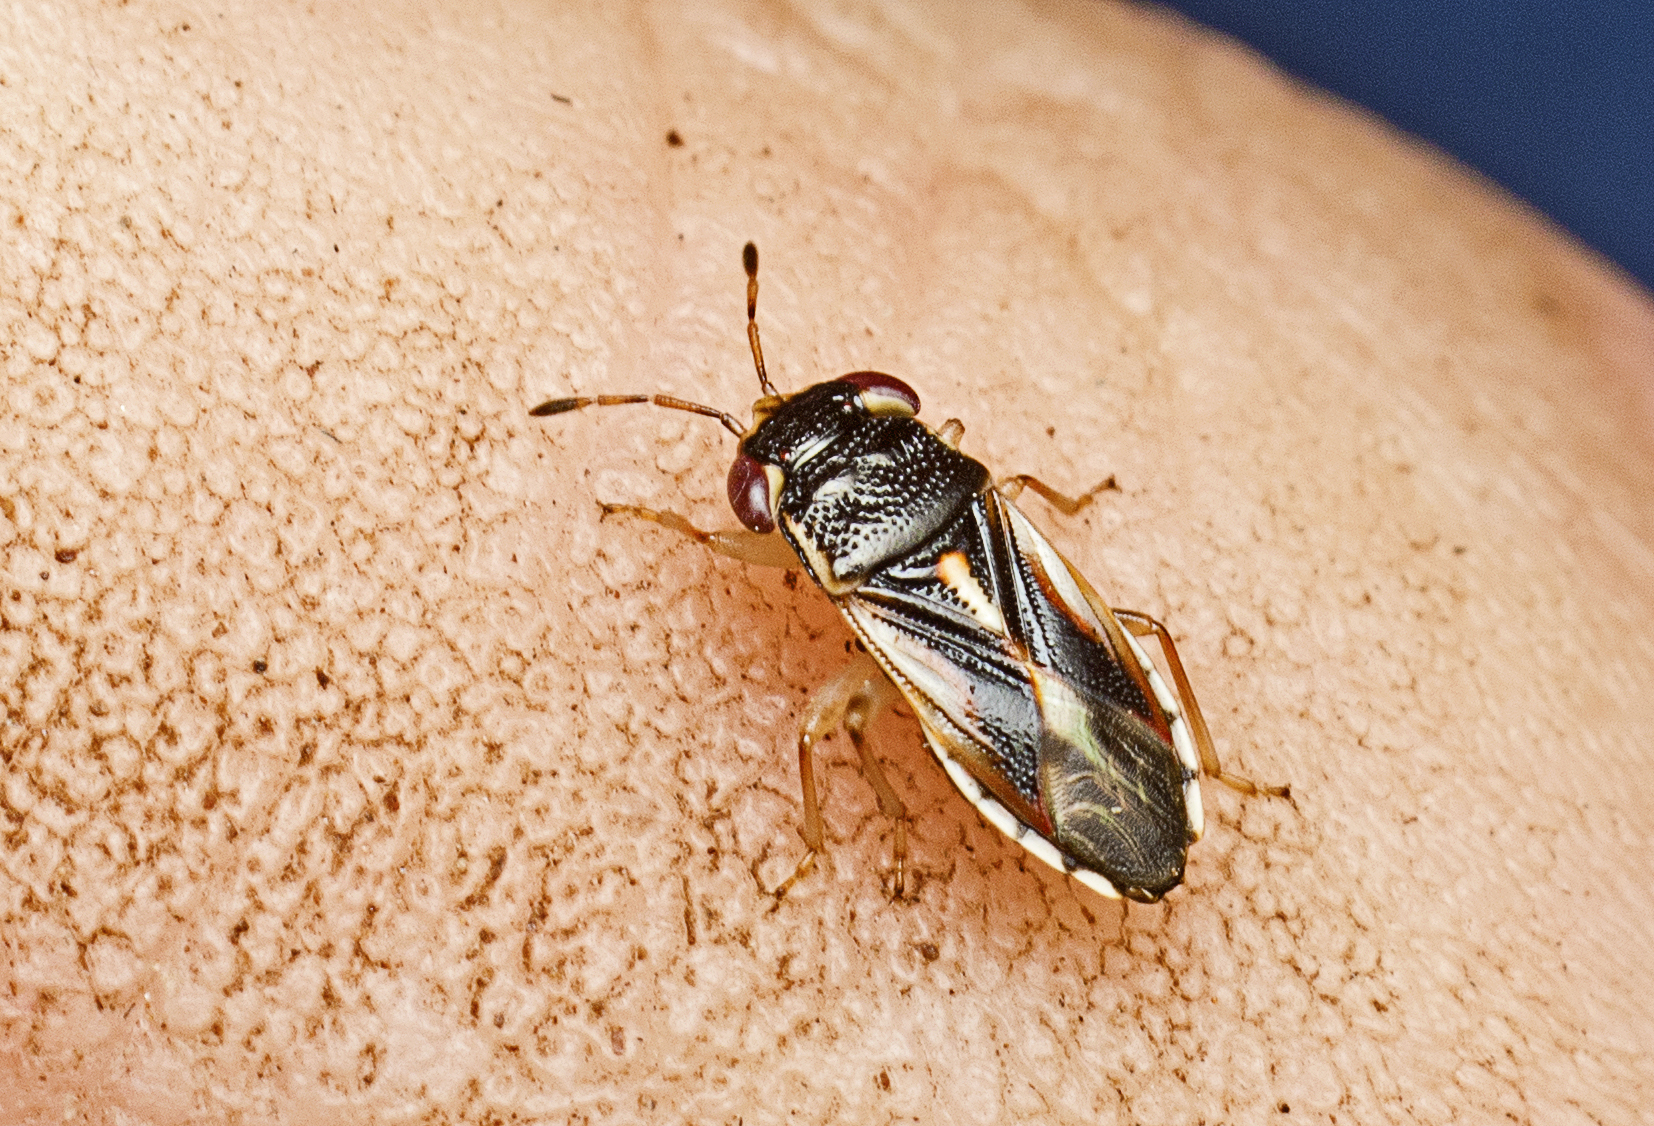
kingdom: Animalia
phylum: Arthropoda
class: Insecta
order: Hemiptera
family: Geocoridae
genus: Stylogeocoris
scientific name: Stylogeocoris elongatus
